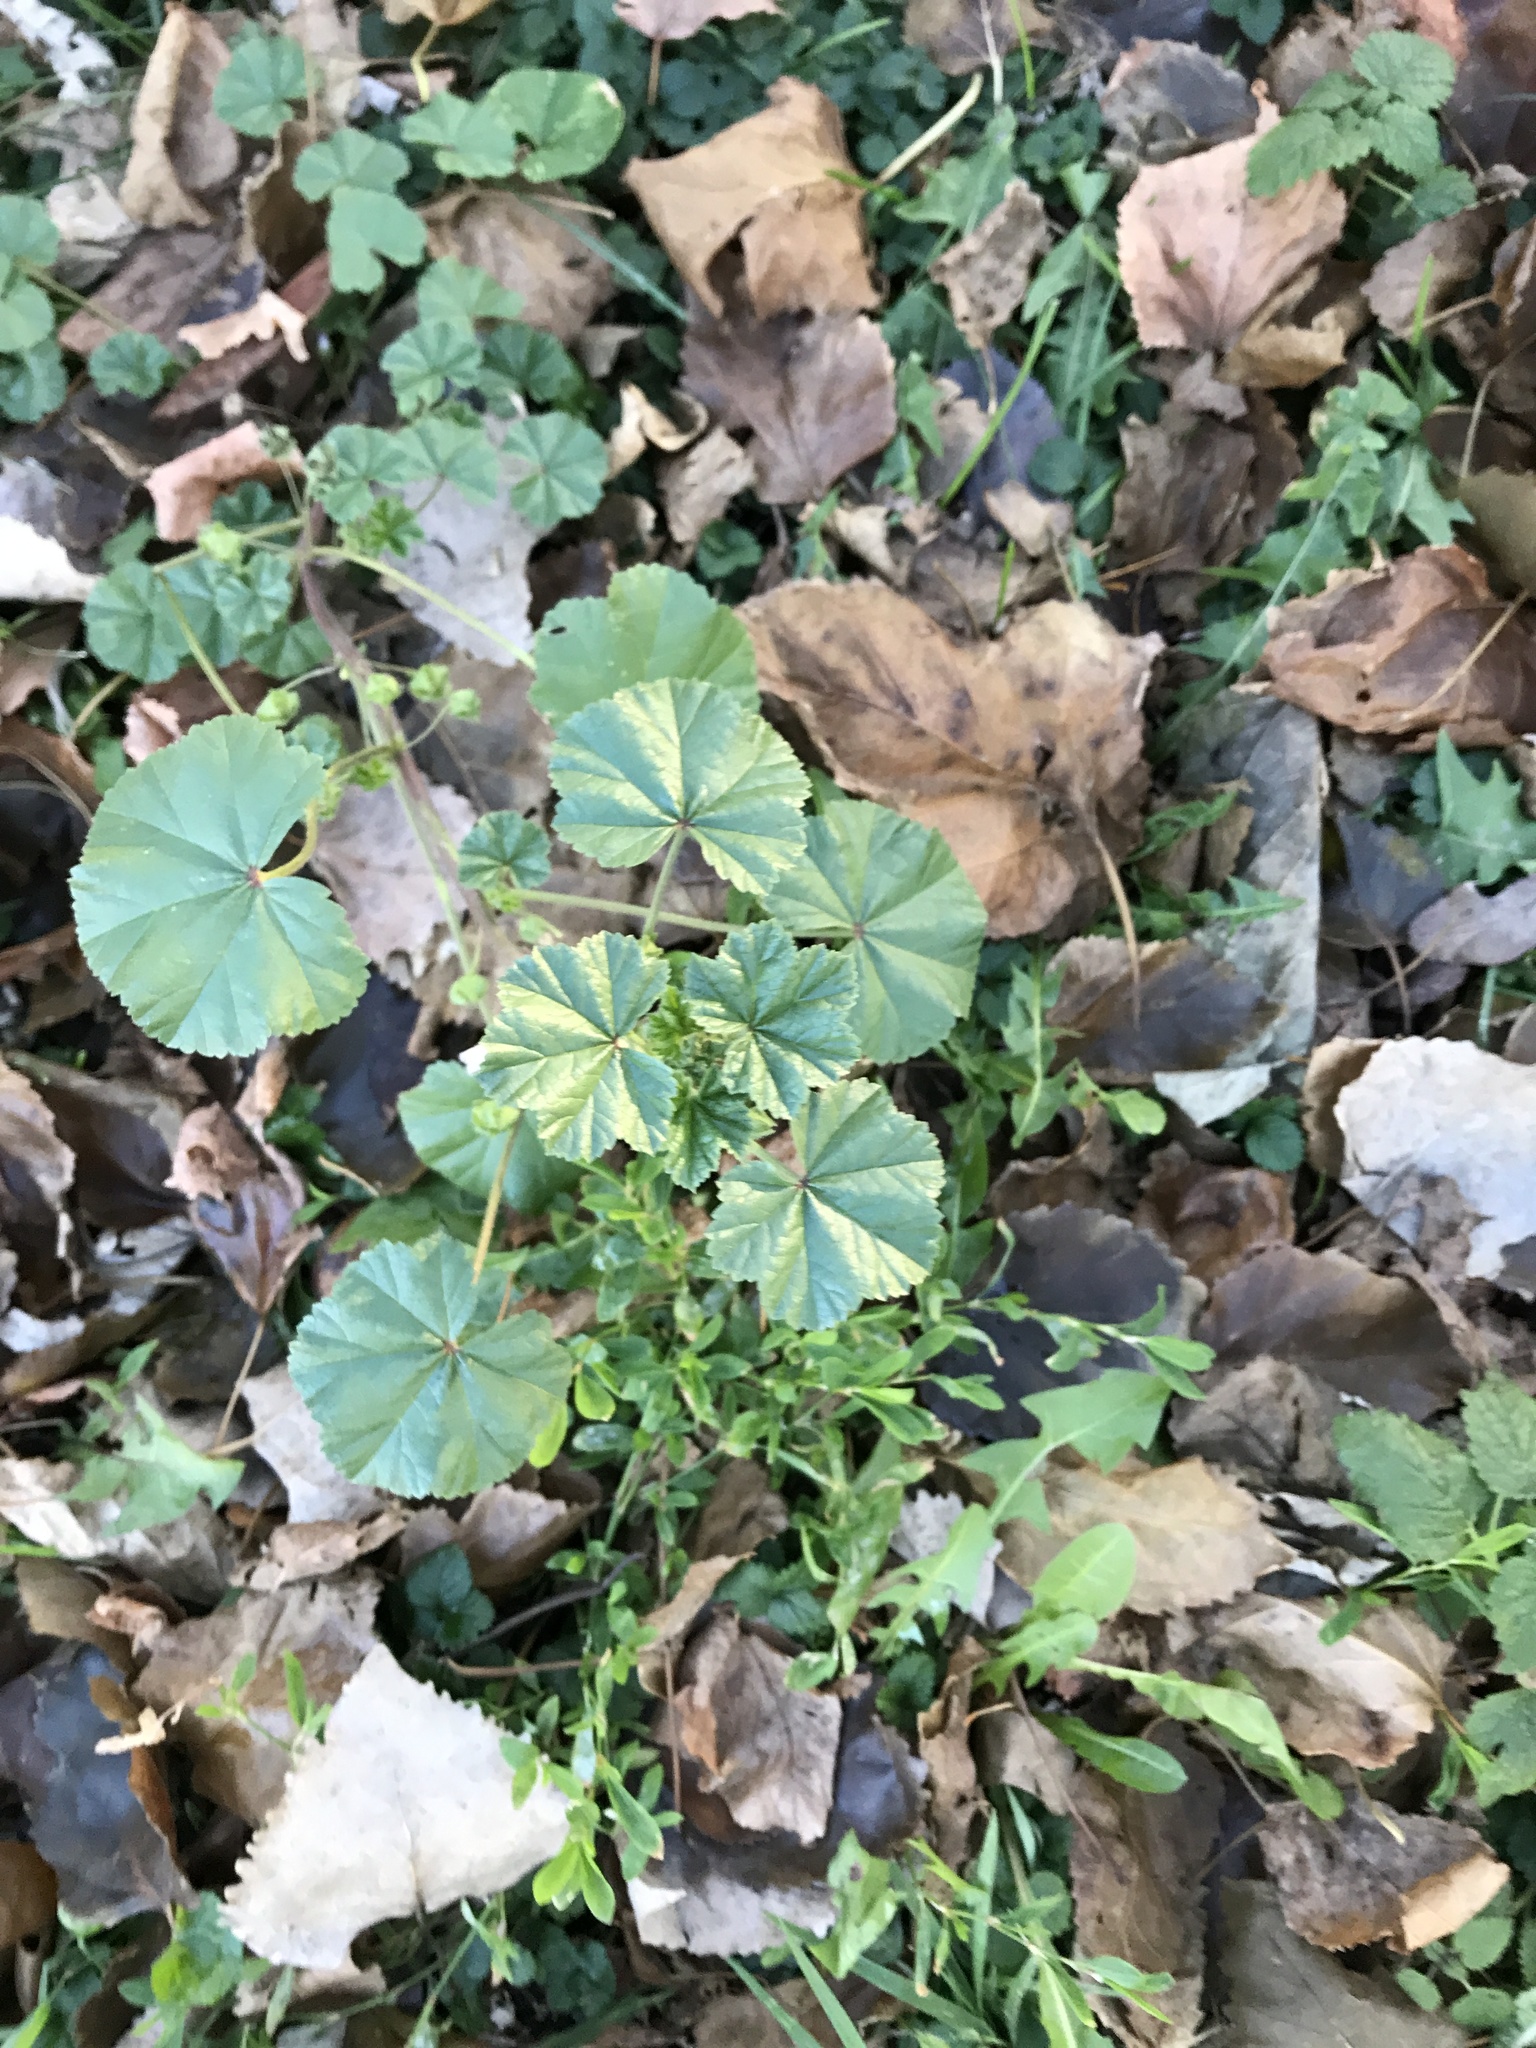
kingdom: Plantae
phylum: Tracheophyta
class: Magnoliopsida
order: Malvales
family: Malvaceae
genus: Malva
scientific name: Malva neglecta
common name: Common mallow
